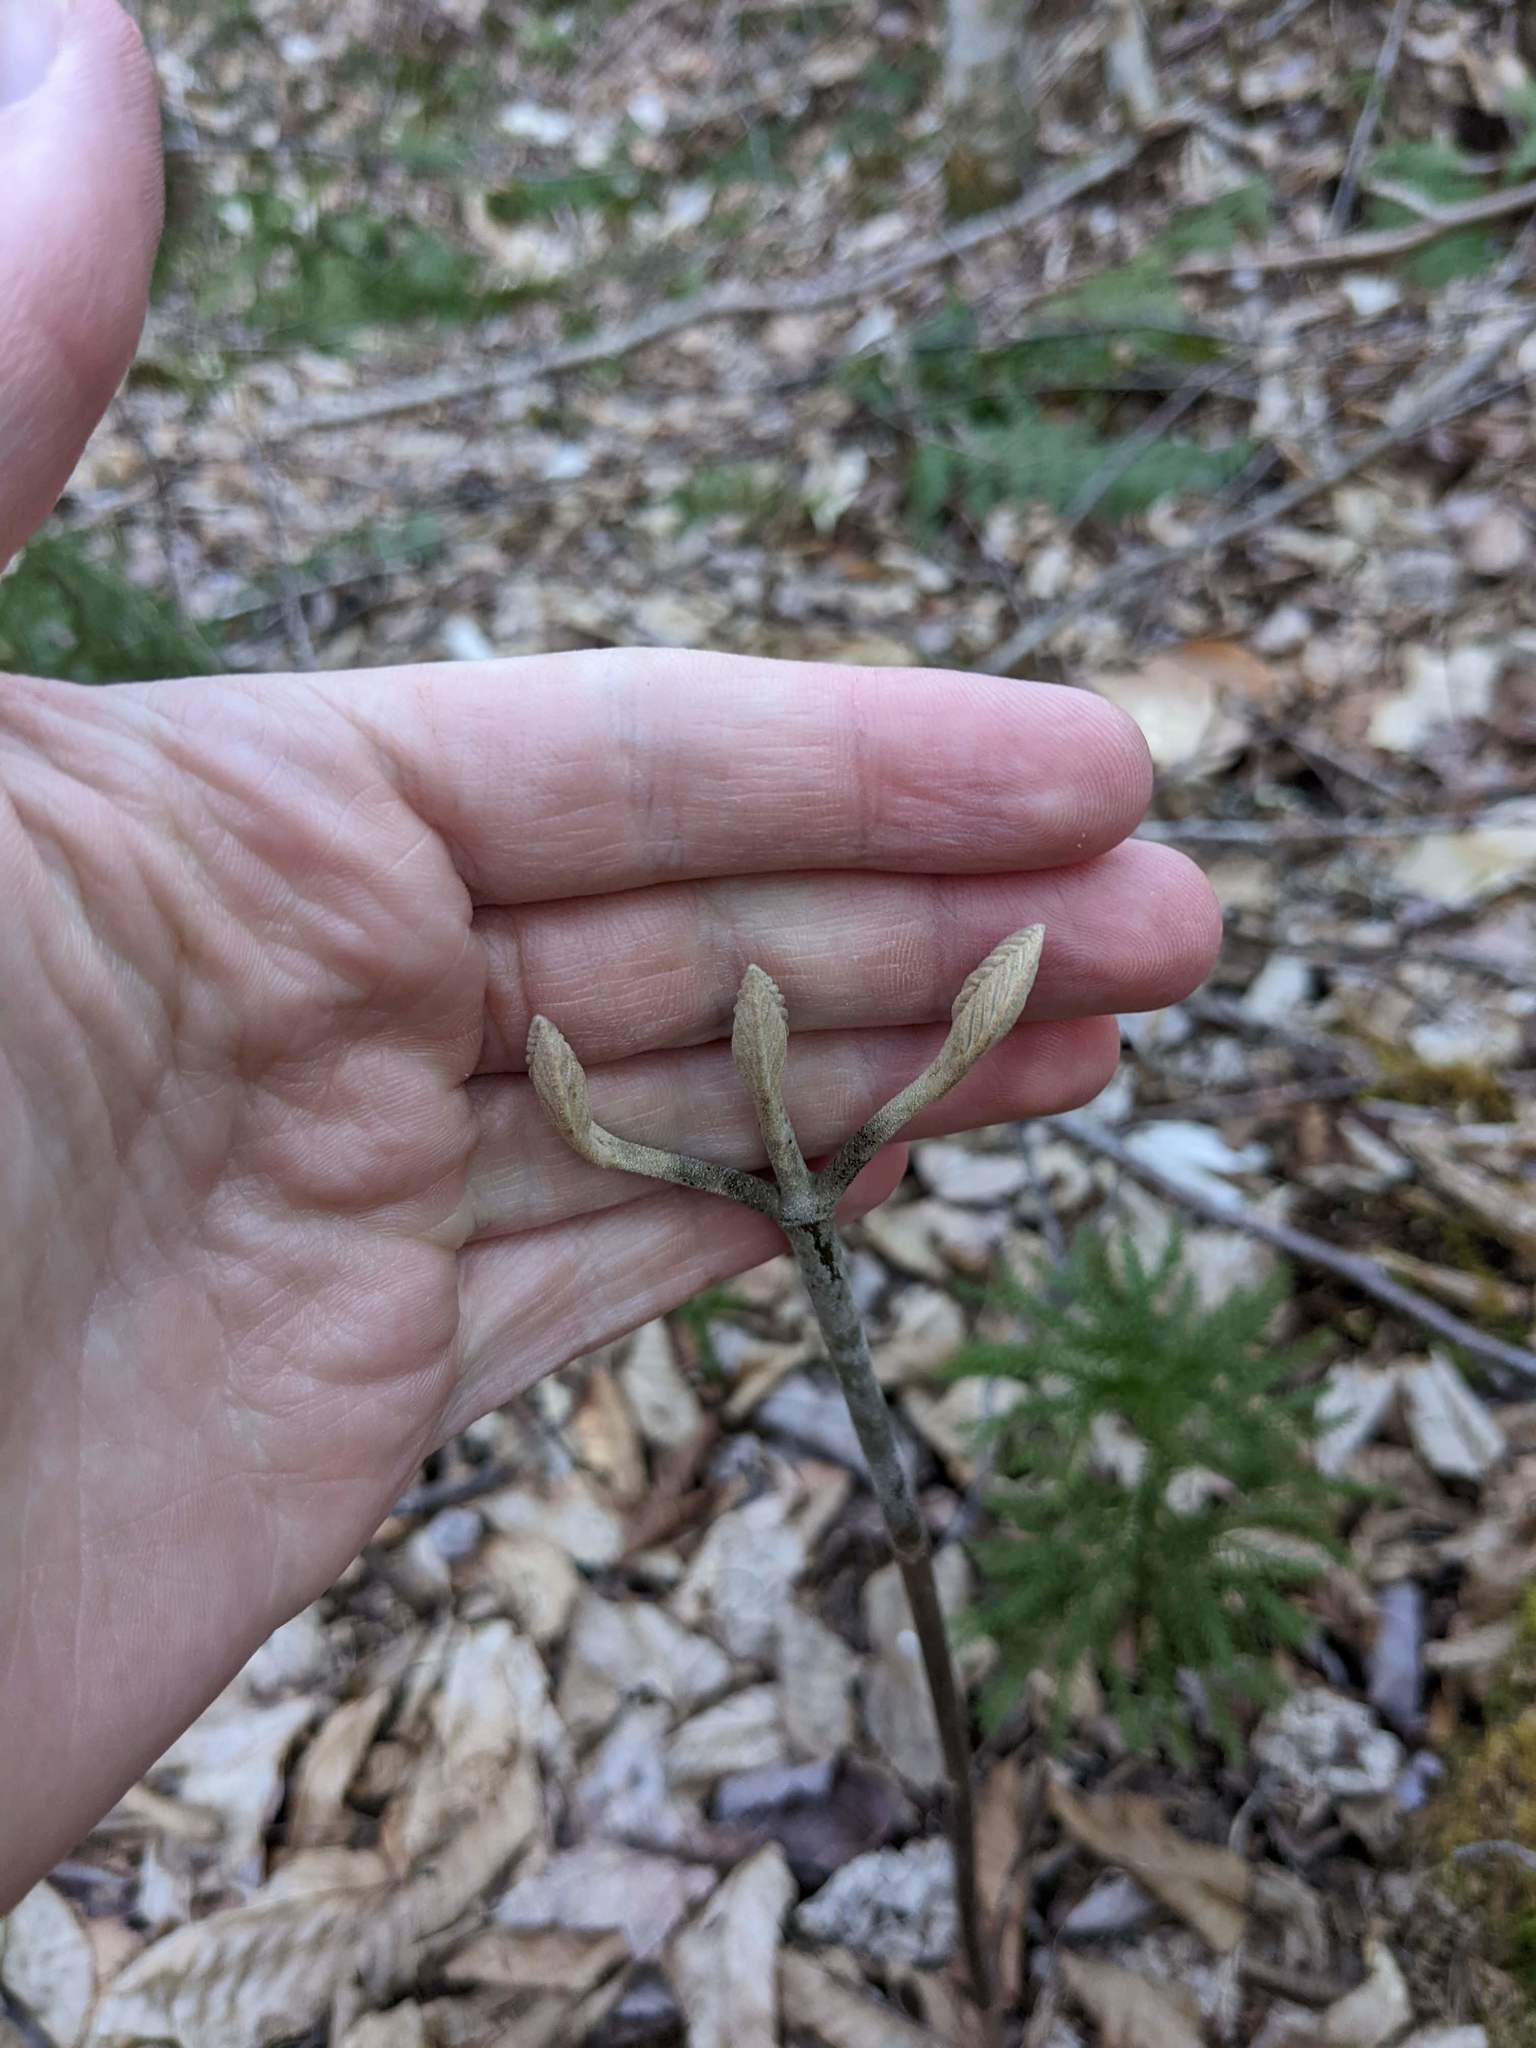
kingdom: Plantae
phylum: Tracheophyta
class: Magnoliopsida
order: Dipsacales
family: Viburnaceae
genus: Viburnum
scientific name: Viburnum lantanoides
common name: Hobblebush
